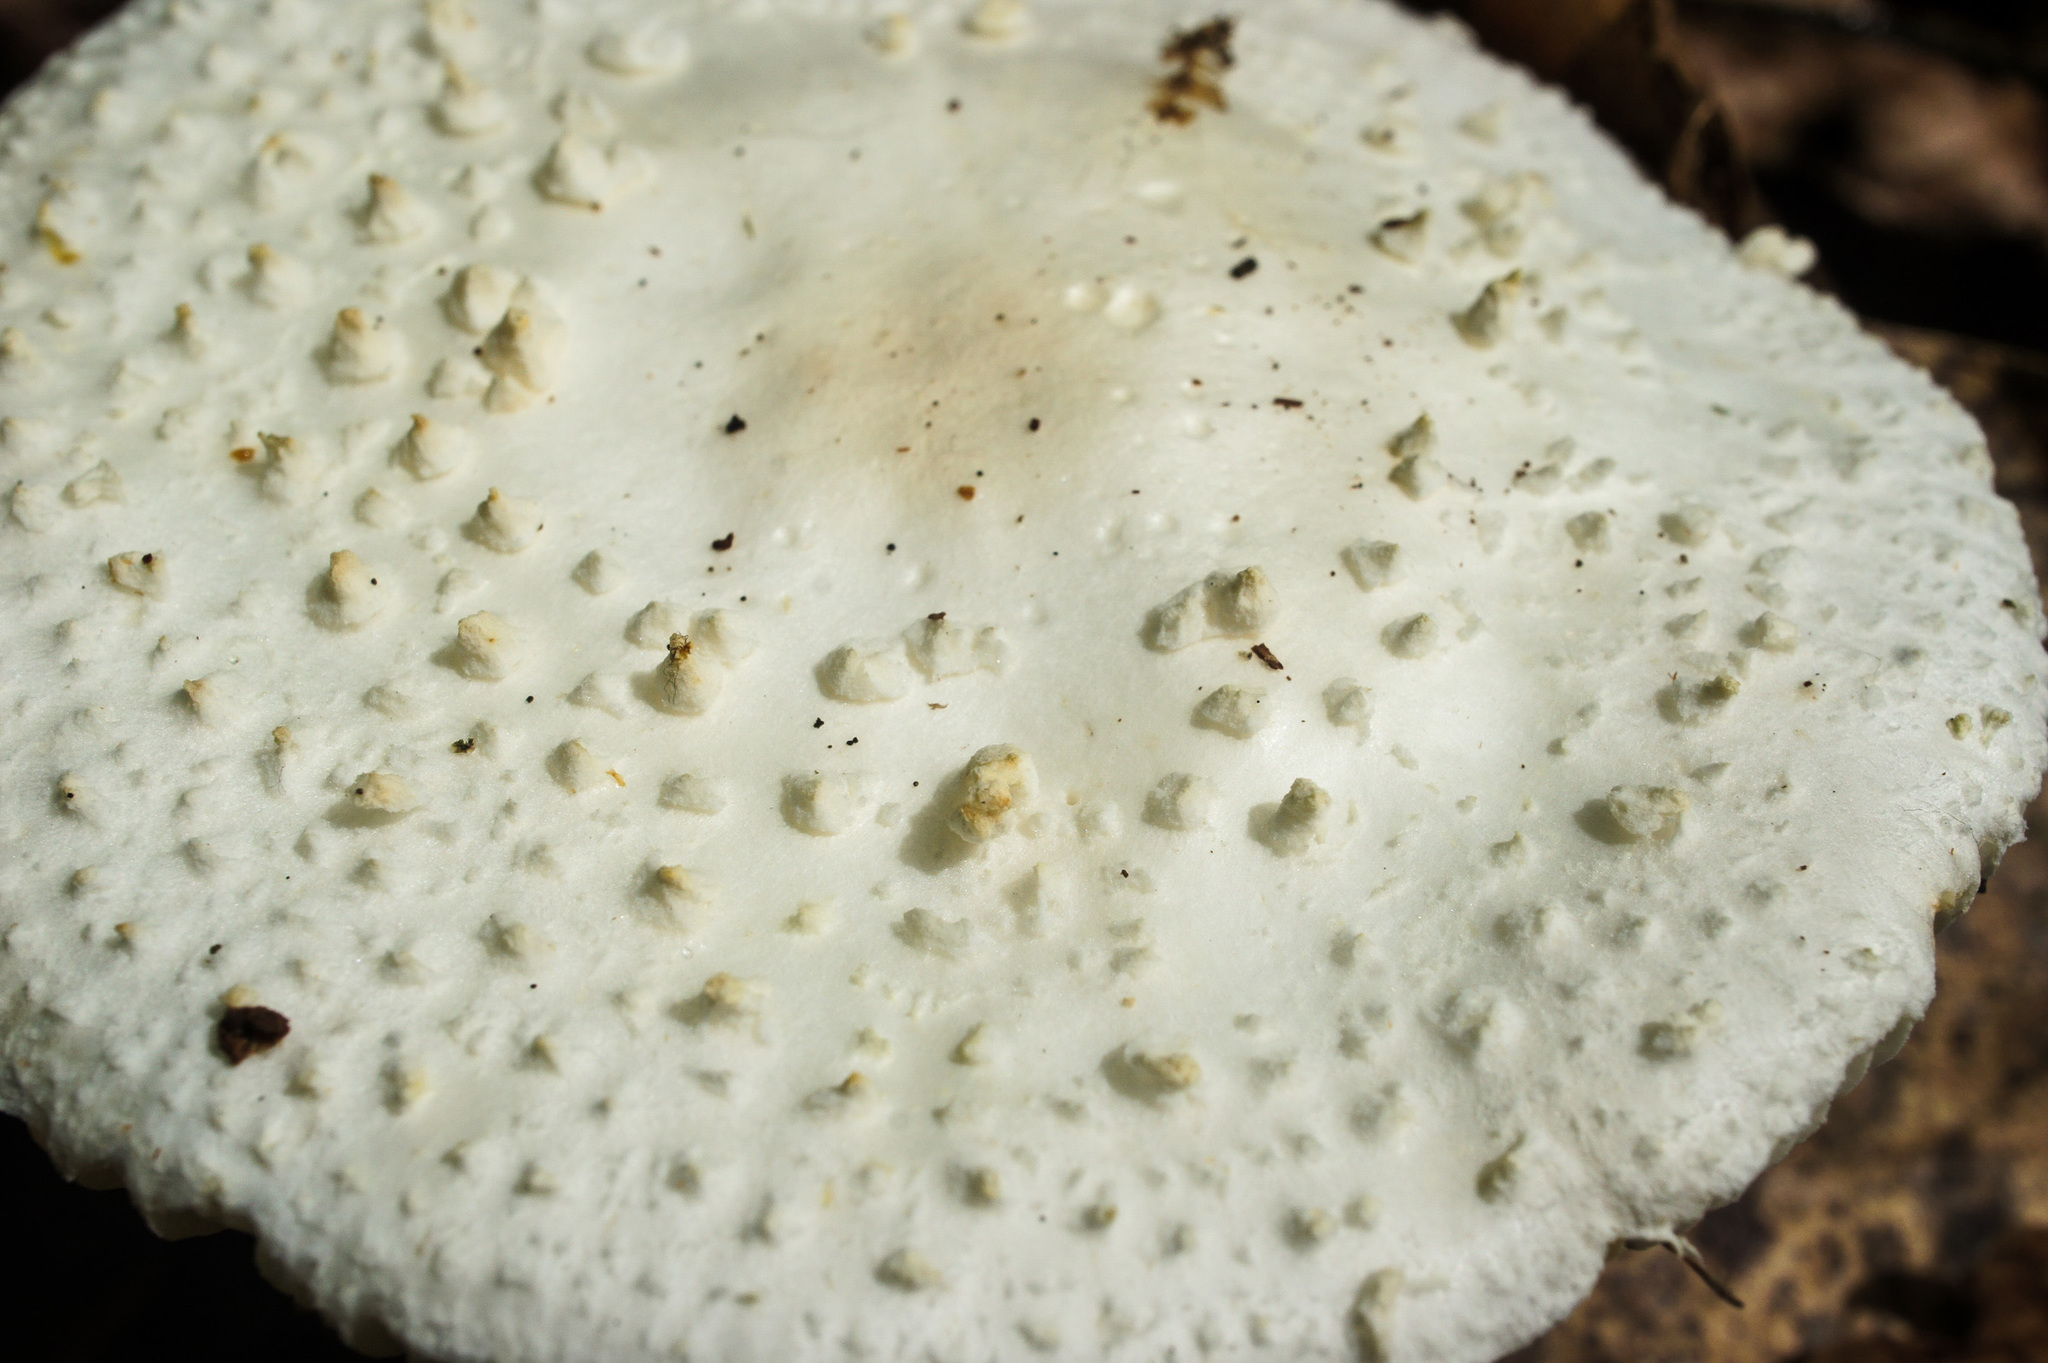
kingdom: Fungi
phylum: Basidiomycota
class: Agaricomycetes
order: Agaricales
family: Amanitaceae
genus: Amanita
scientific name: Amanita abrupta
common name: American abrupt-bulbed lepidella
